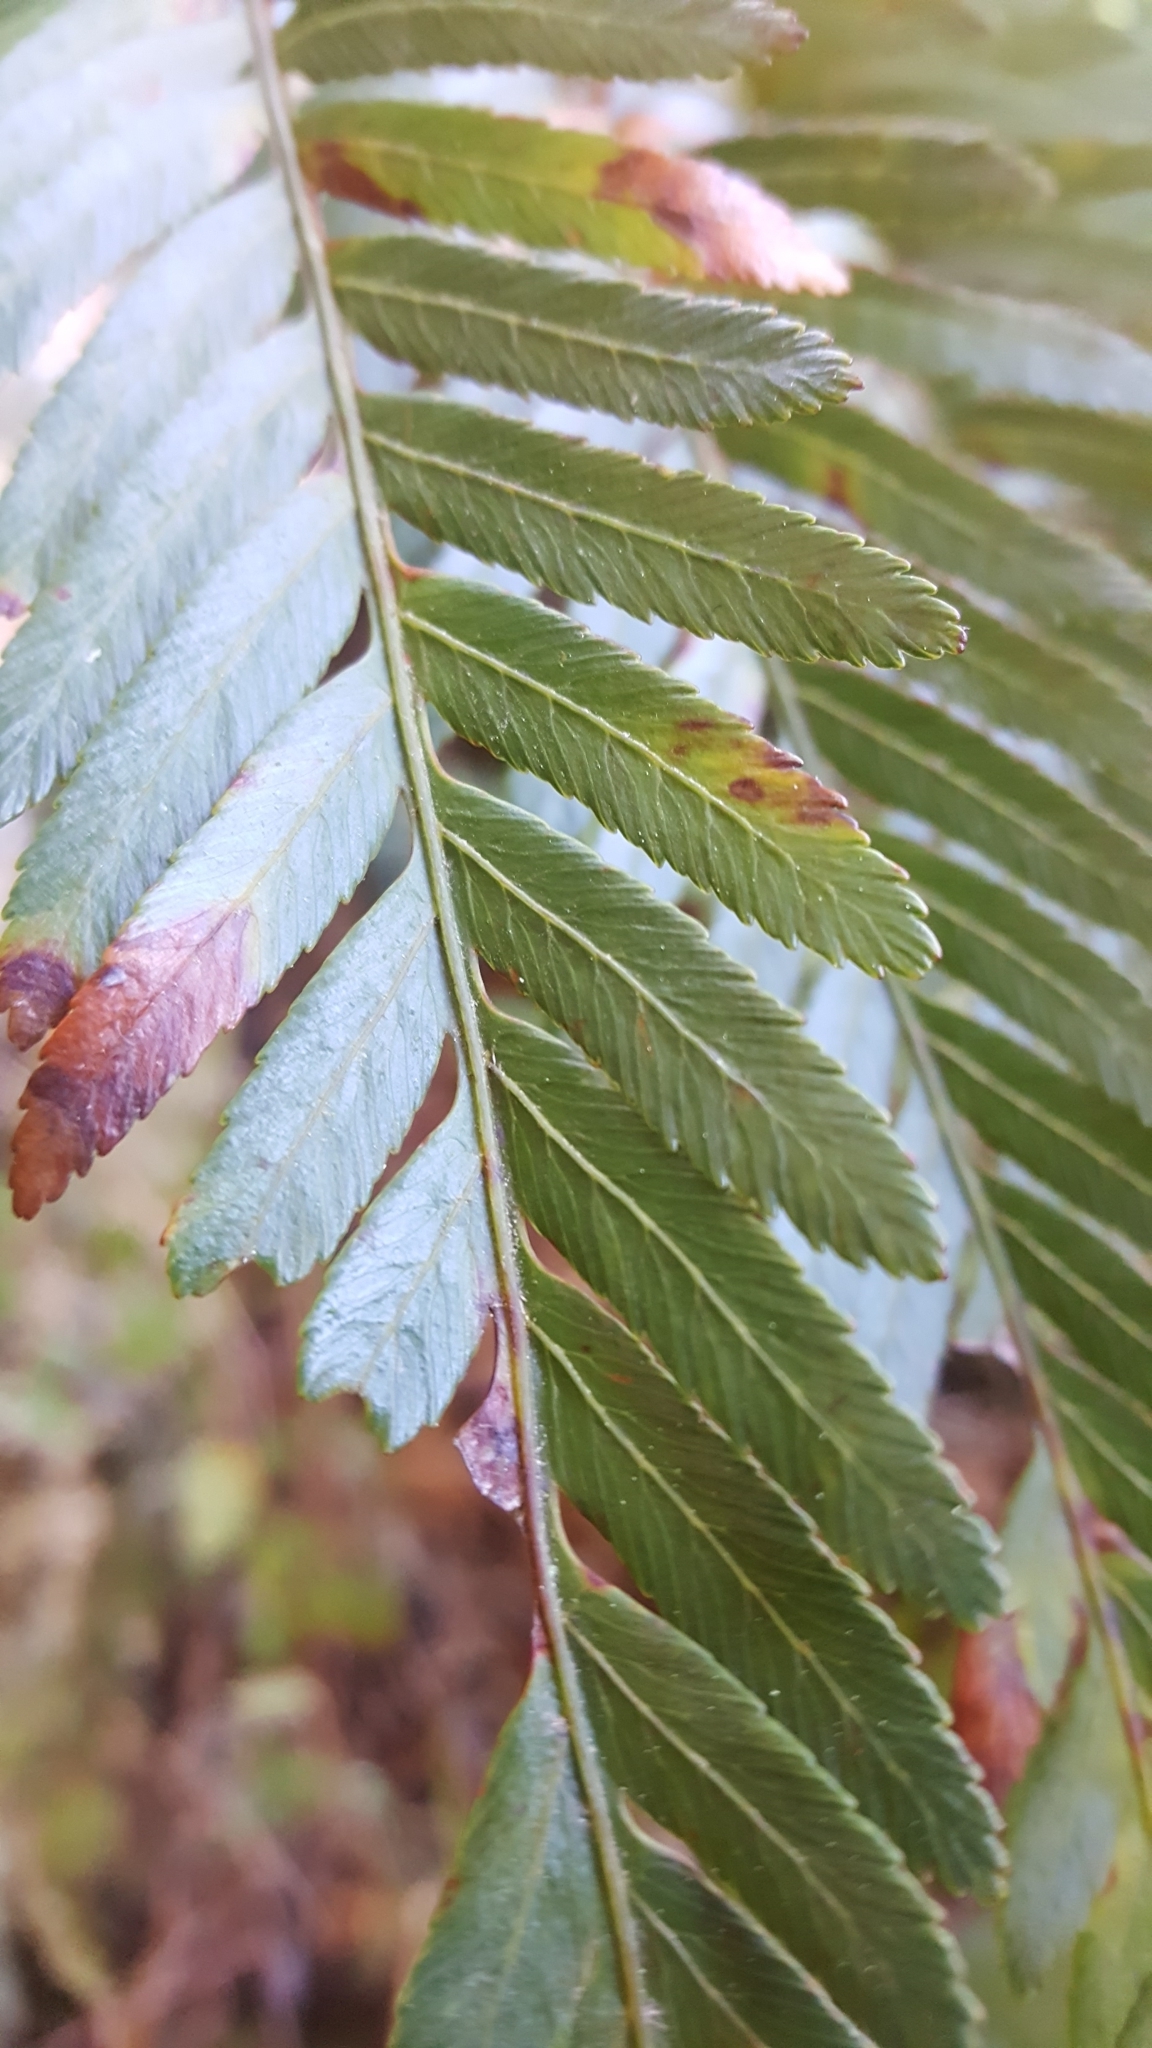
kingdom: Plantae
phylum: Tracheophyta
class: Polypodiopsida
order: Osmundales
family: Osmundaceae
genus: Todea
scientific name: Todea barbara
